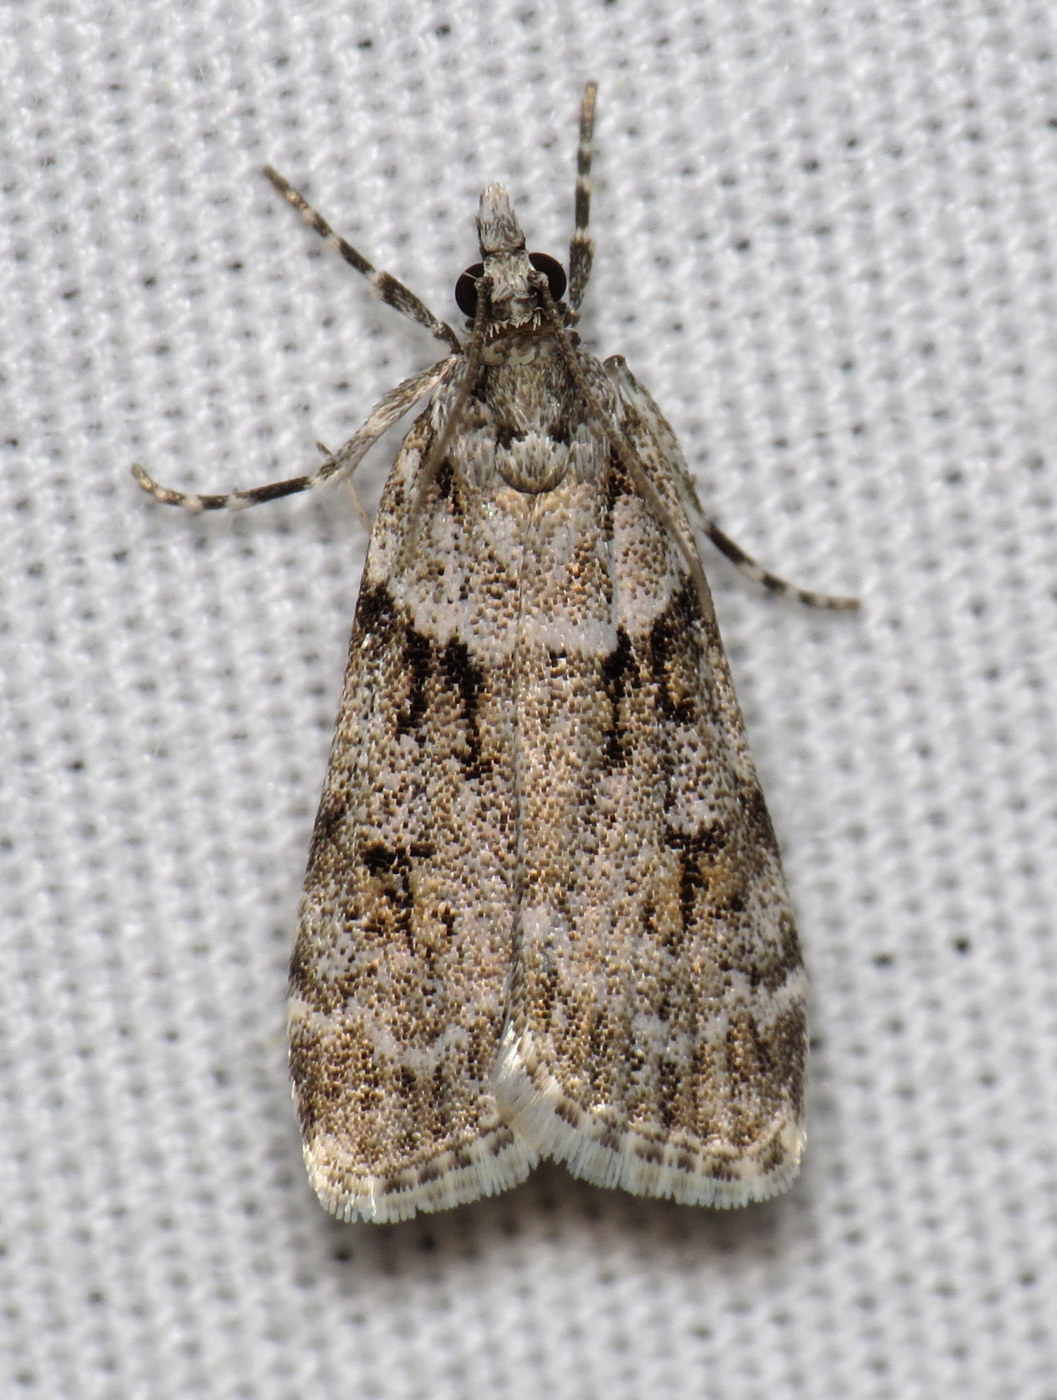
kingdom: Animalia
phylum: Arthropoda
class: Insecta
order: Lepidoptera
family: Crambidae
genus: Scoparia
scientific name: Scoparia biplagialis
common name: Double-striped scoparia moth
